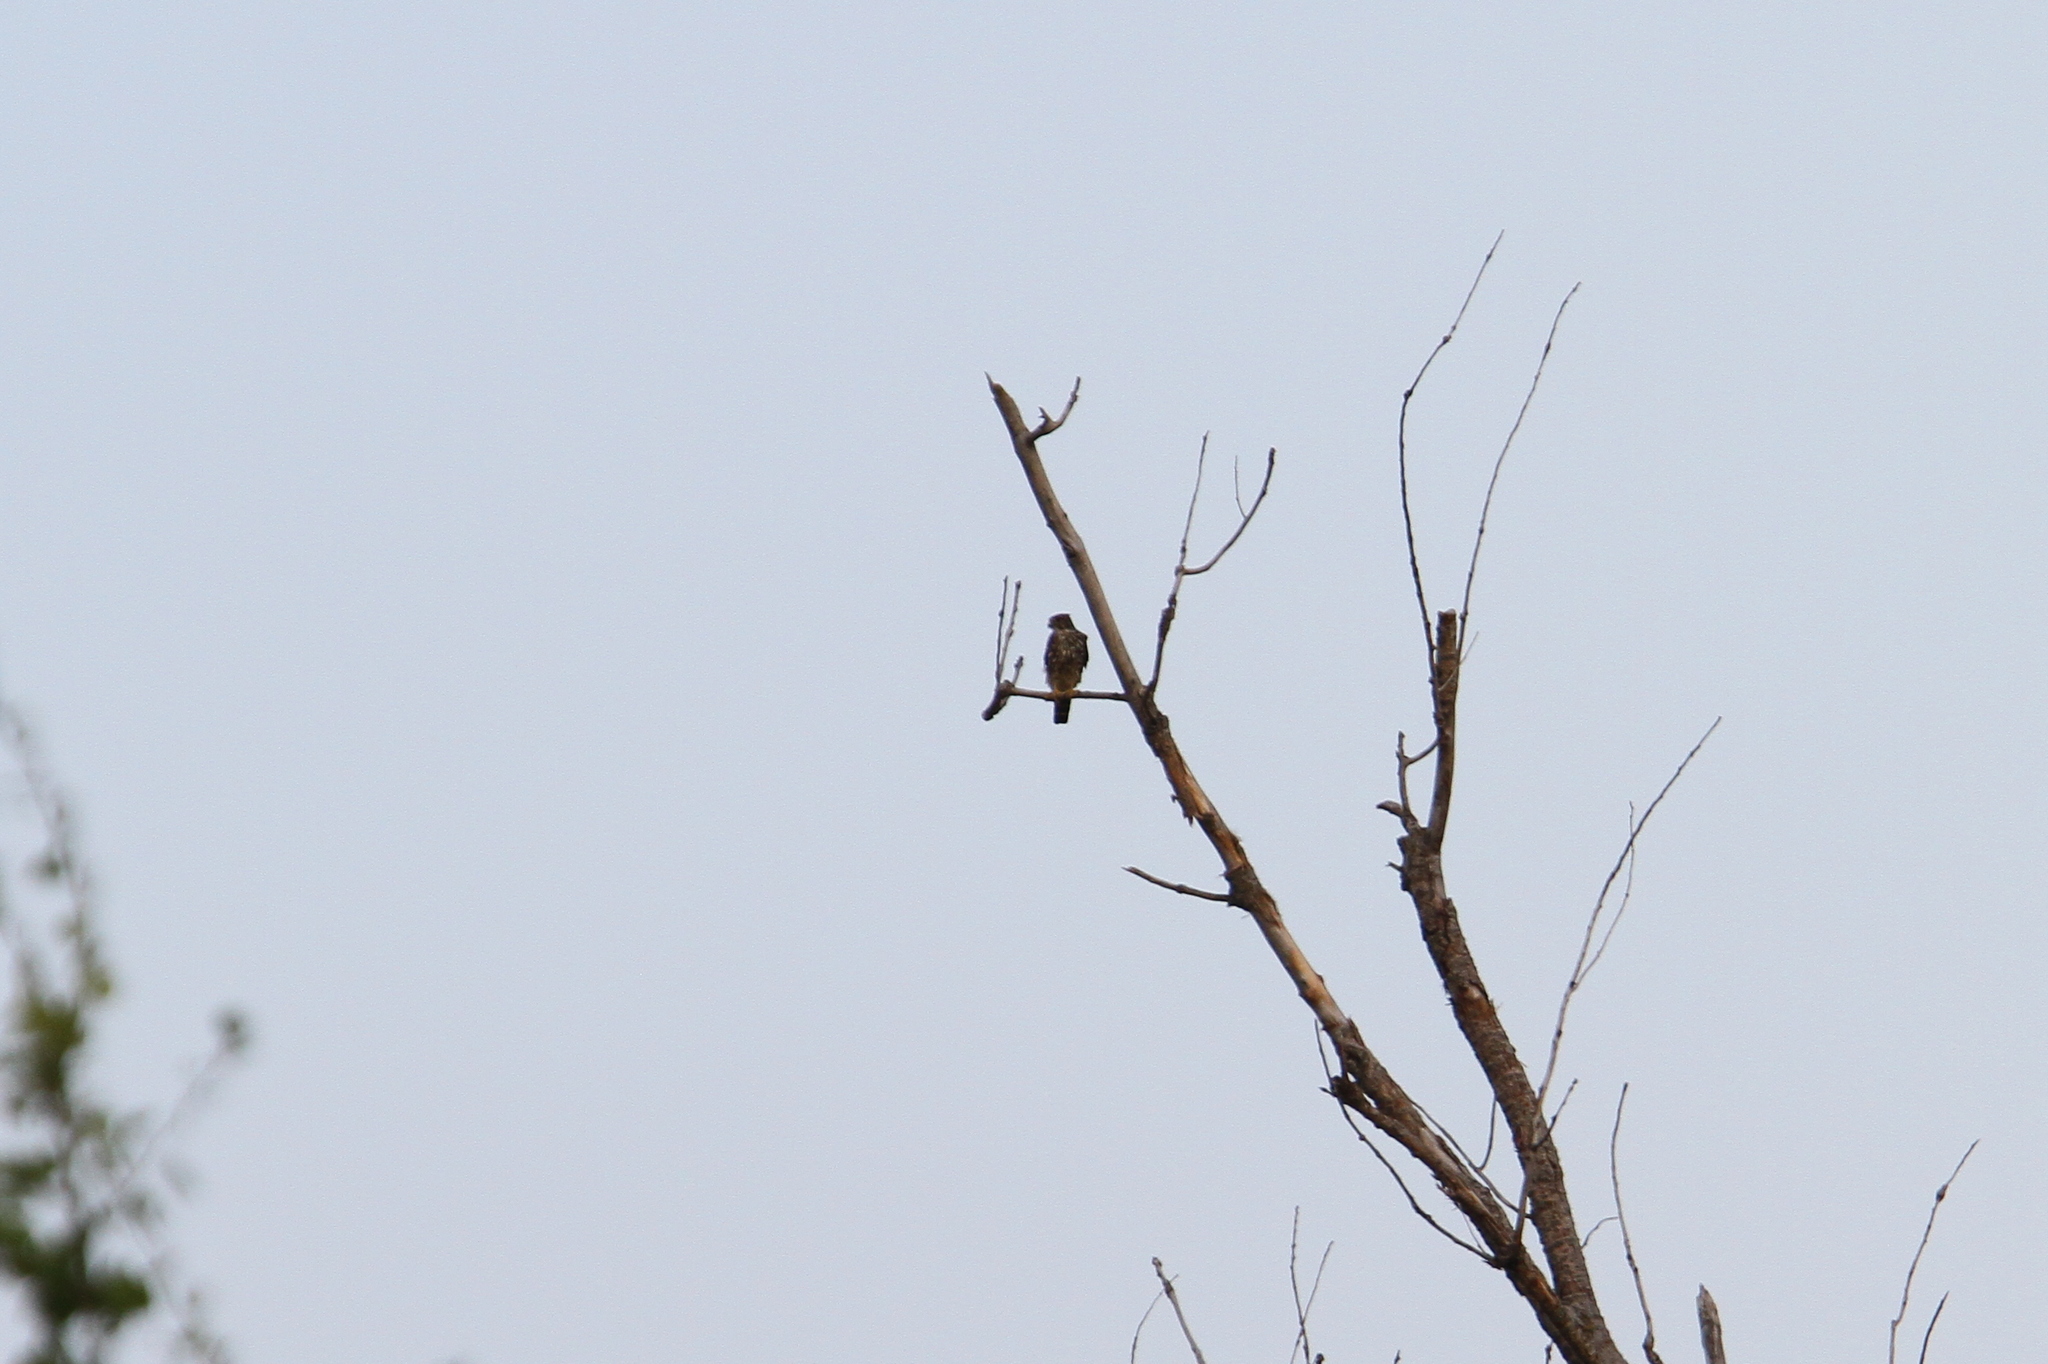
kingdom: Animalia
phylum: Chordata
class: Aves
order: Falconiformes
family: Falconidae
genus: Falco
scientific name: Falco columbarius
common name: Merlin
